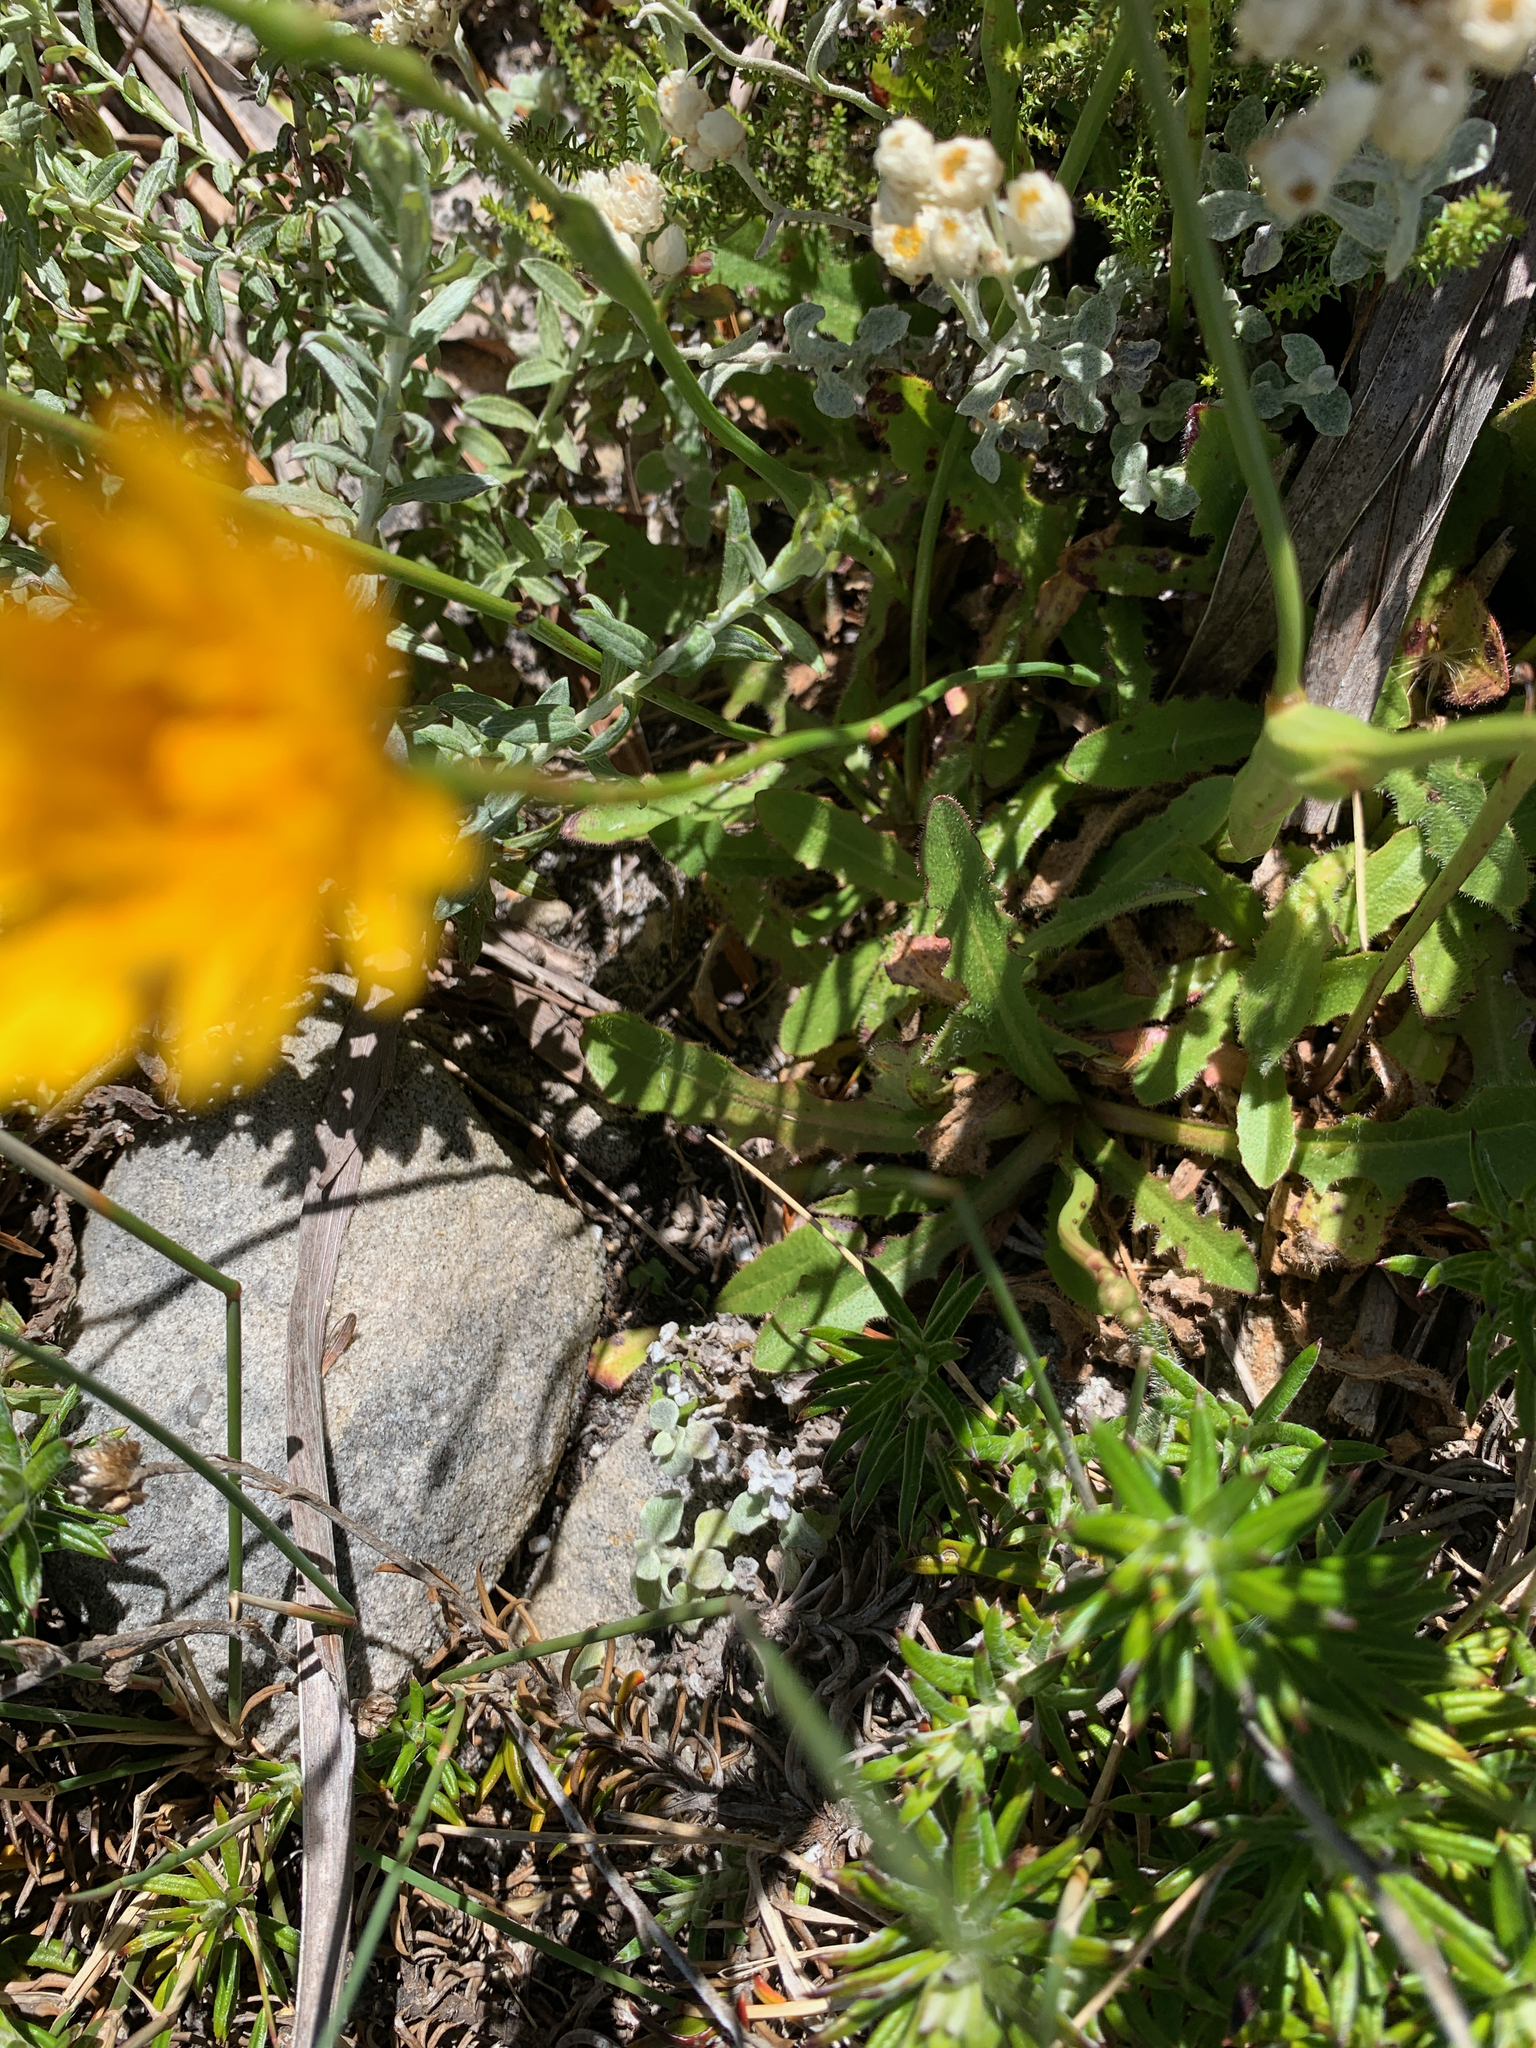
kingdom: Plantae
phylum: Tracheophyta
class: Magnoliopsida
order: Asterales
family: Asteraceae
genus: Hypochaeris
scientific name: Hypochaeris radicata
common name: Flatweed
